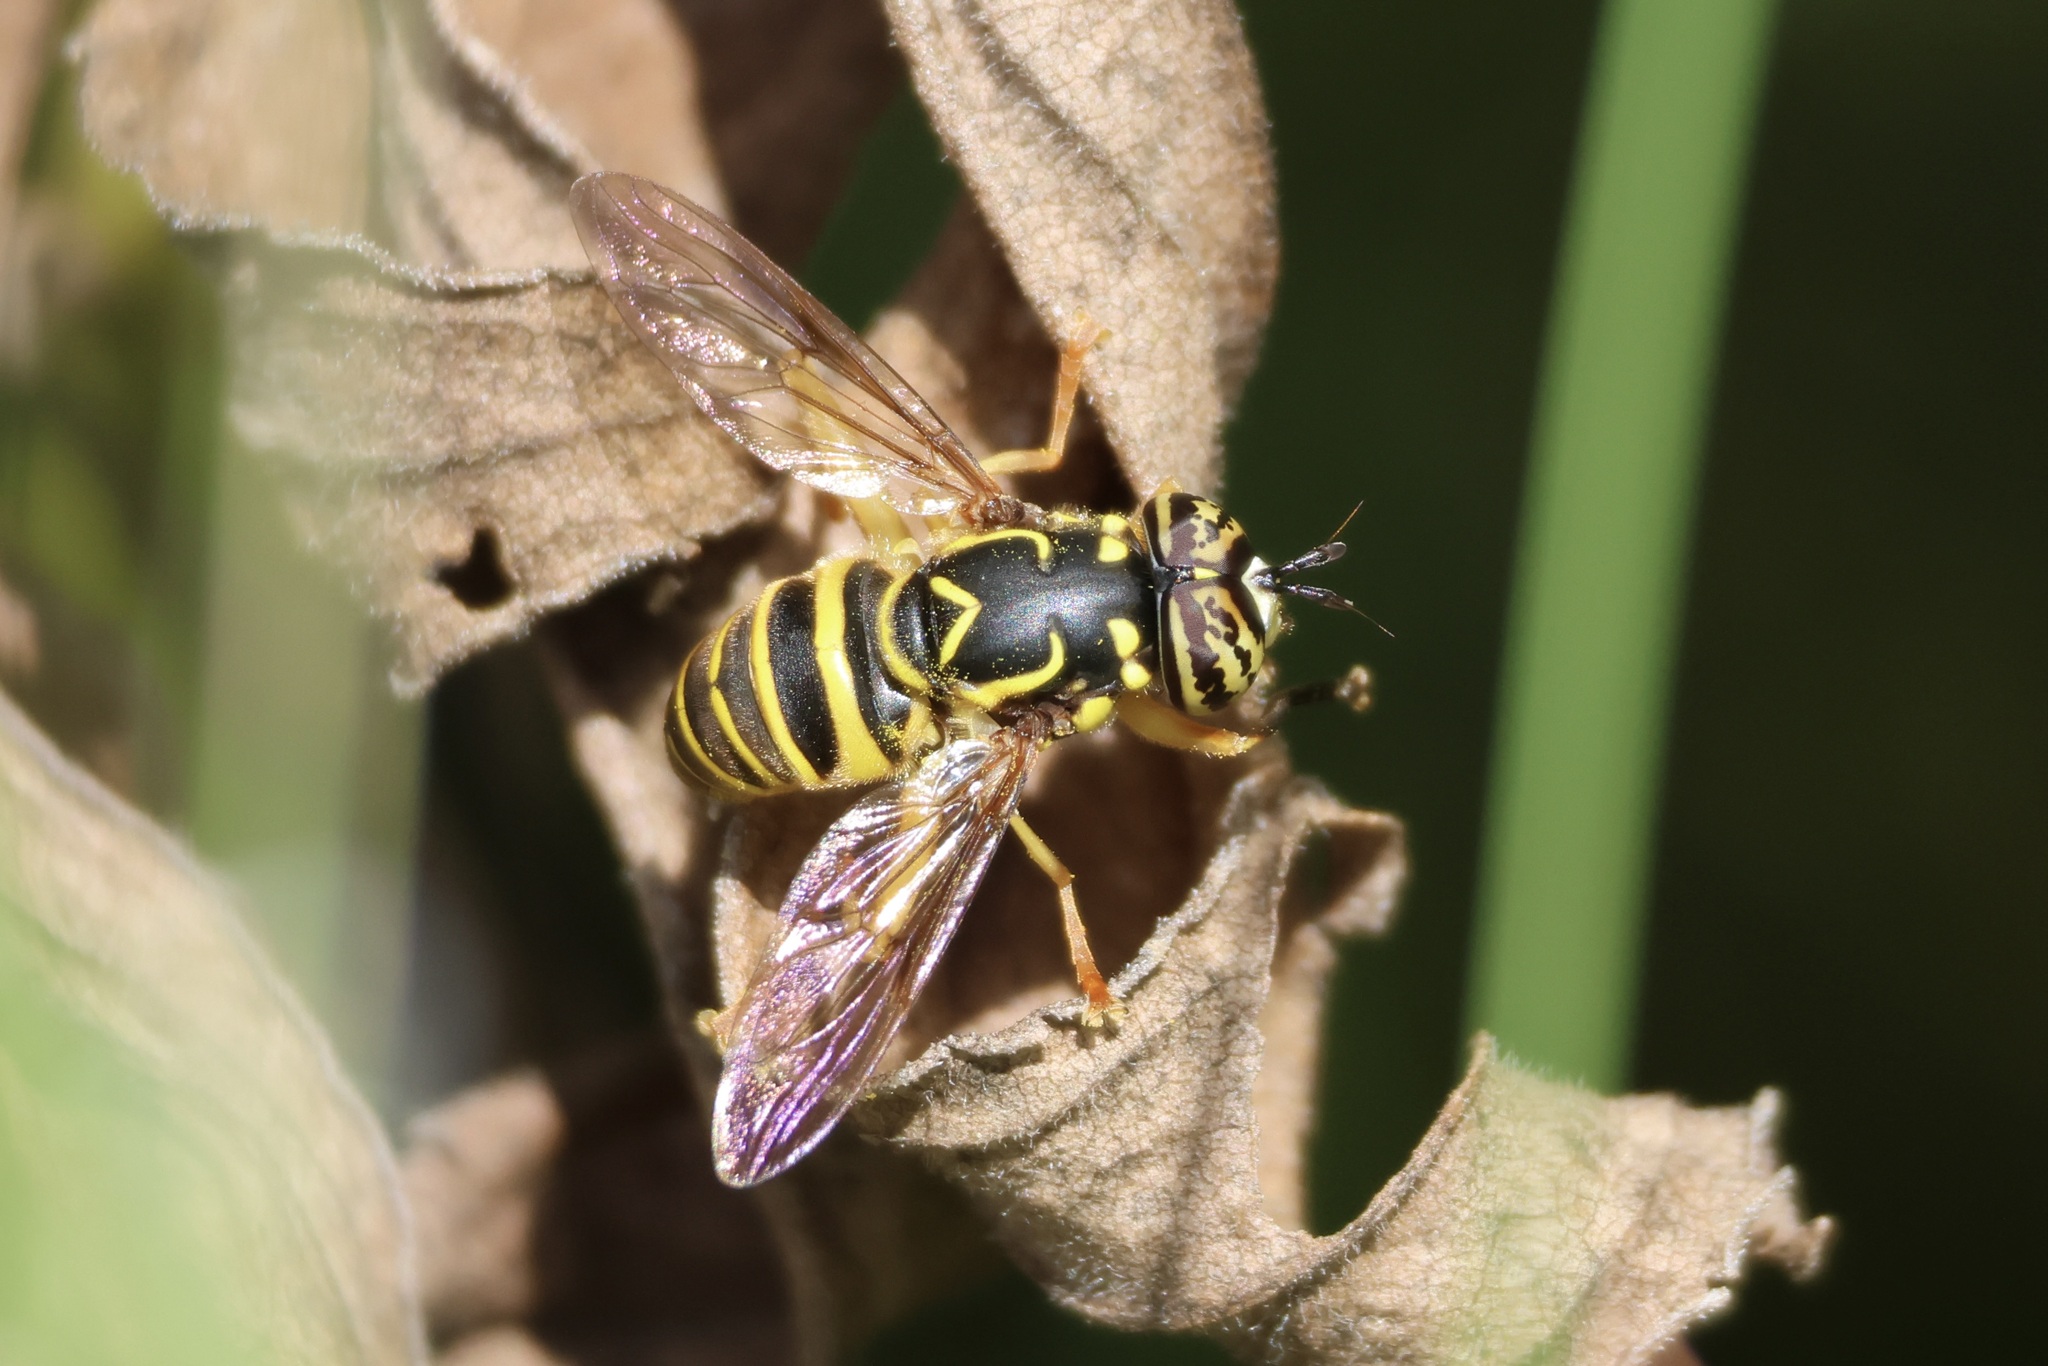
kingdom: Animalia
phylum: Arthropoda
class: Insecta
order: Diptera
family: Syrphidae
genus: Spilomyia
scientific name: Spilomyia longicornis
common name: Eastern hornet fly
